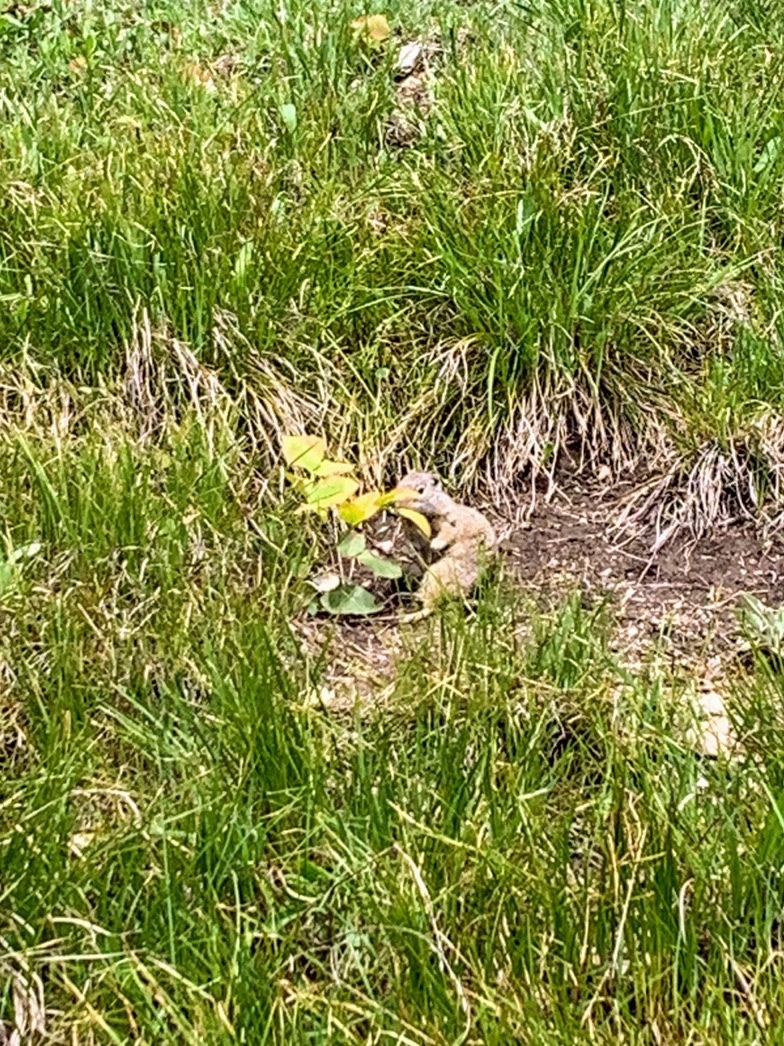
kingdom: Animalia
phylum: Chordata
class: Mammalia
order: Rodentia
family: Sciuridae
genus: Urocitellus
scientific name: Urocitellus armatus
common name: Uinta ground squirrel
